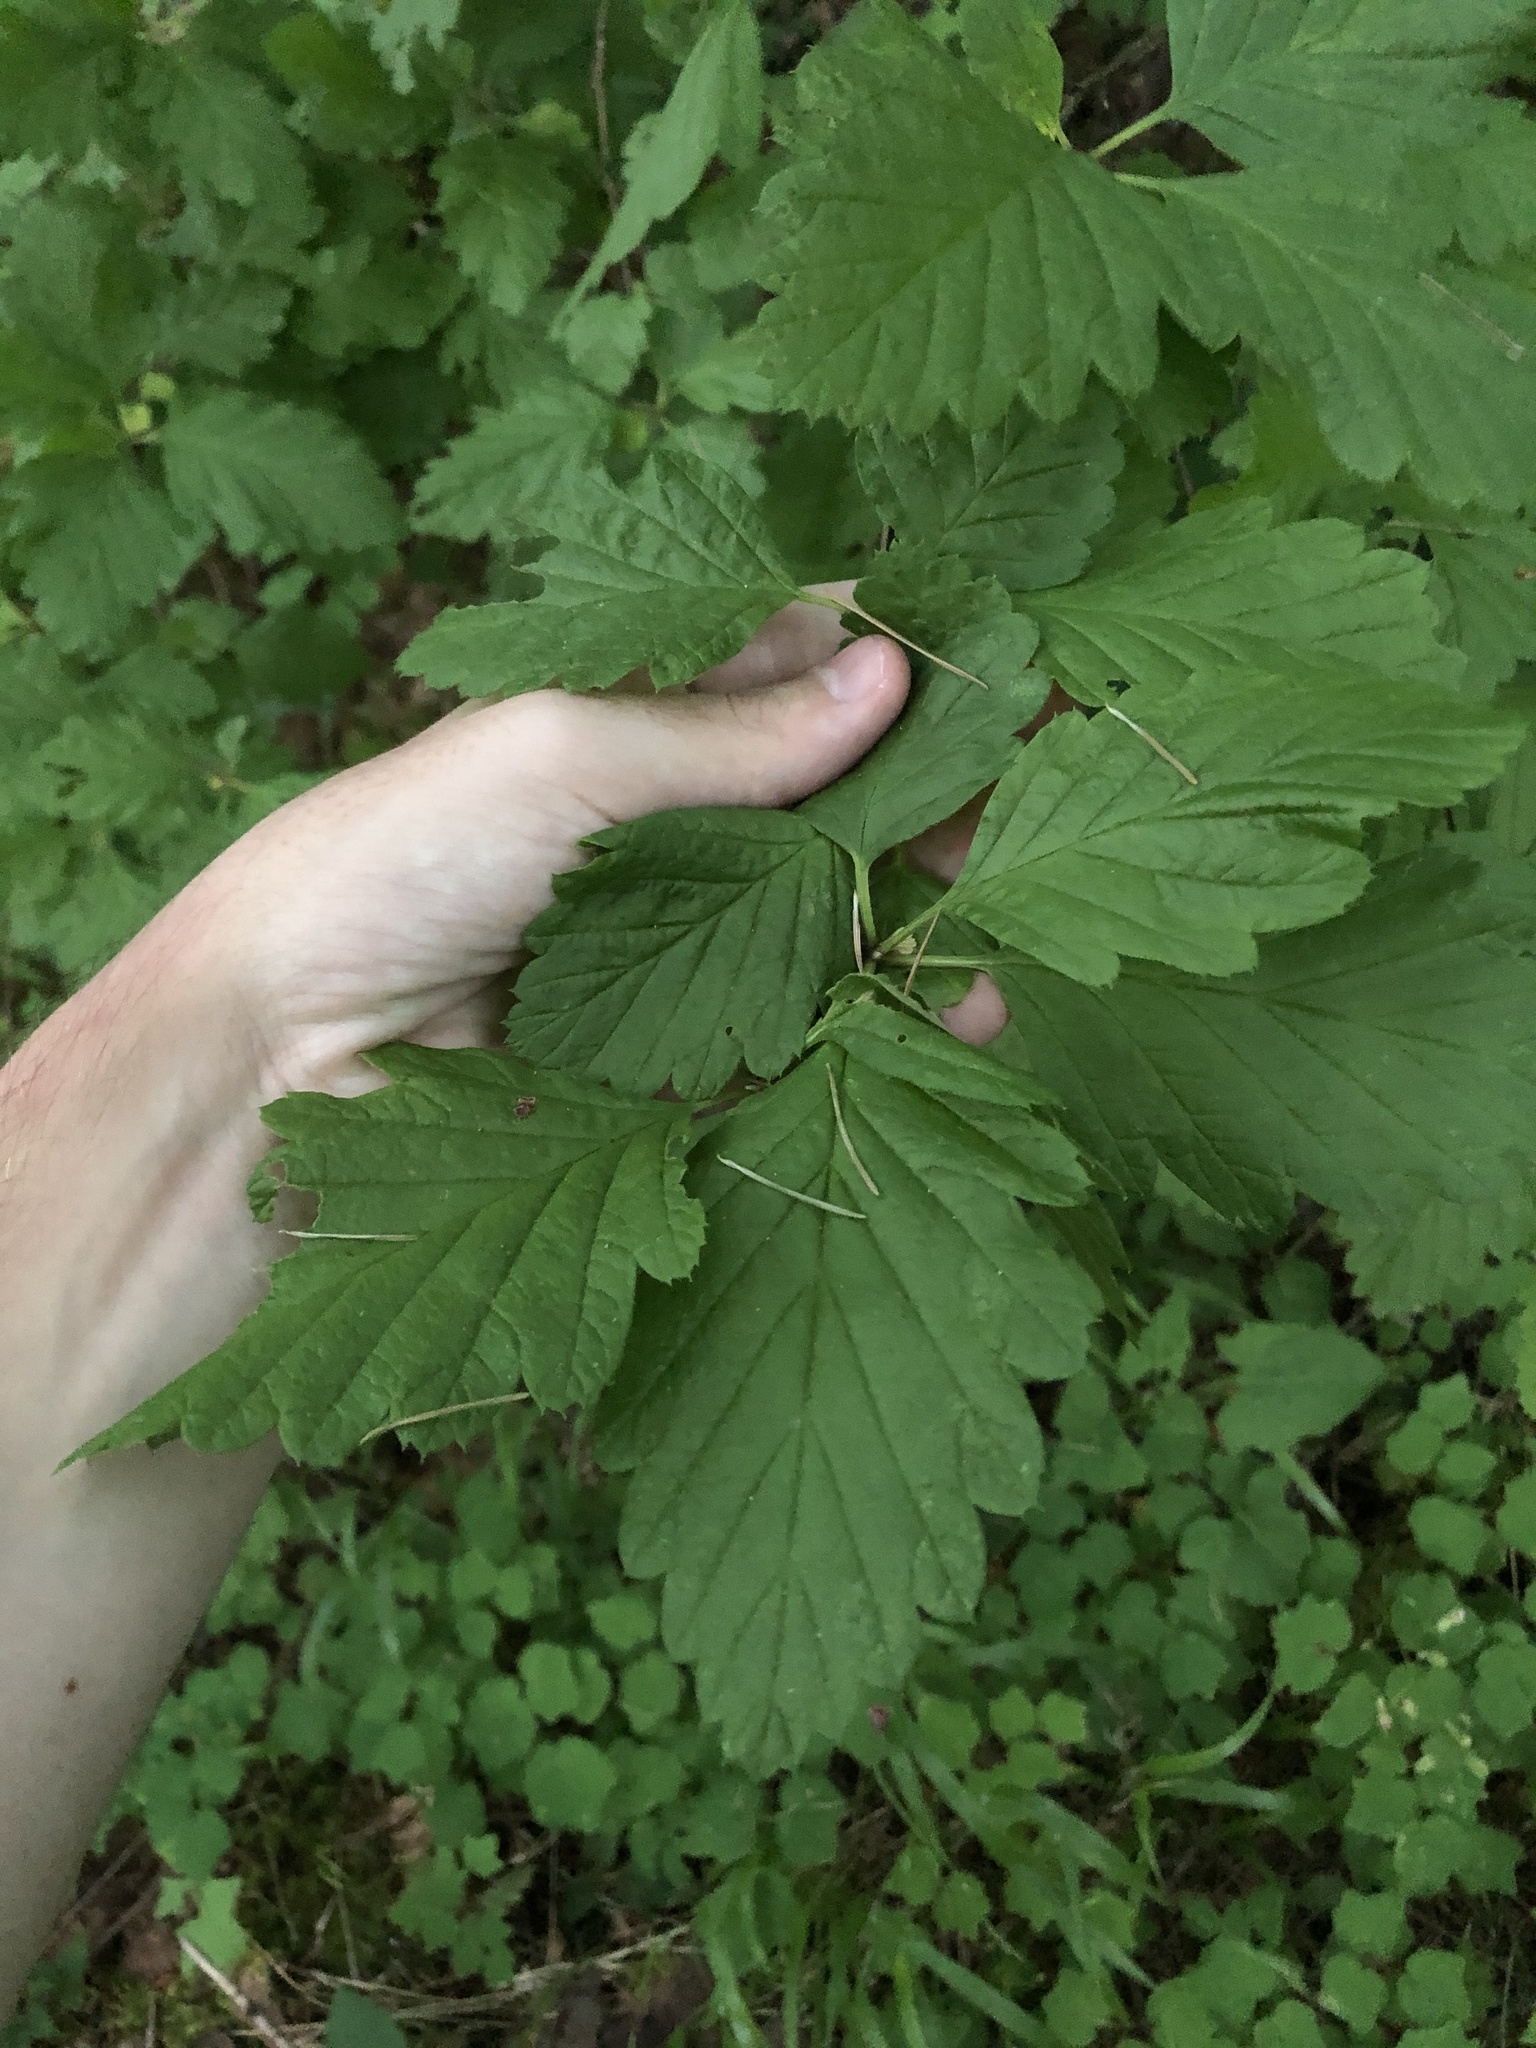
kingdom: Plantae
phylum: Tracheophyta
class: Magnoliopsida
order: Rosales
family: Rosaceae
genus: Holodiscus
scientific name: Holodiscus discolor
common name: Oceanspray
